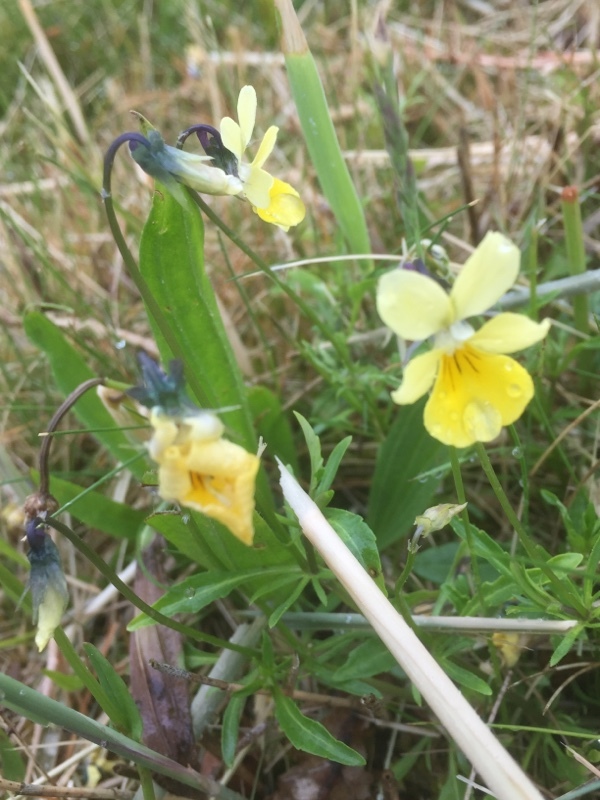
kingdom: Plantae
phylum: Tracheophyta
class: Magnoliopsida
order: Malpighiales
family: Violaceae
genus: Viola
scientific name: Viola lutea
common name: Mountain pansy
